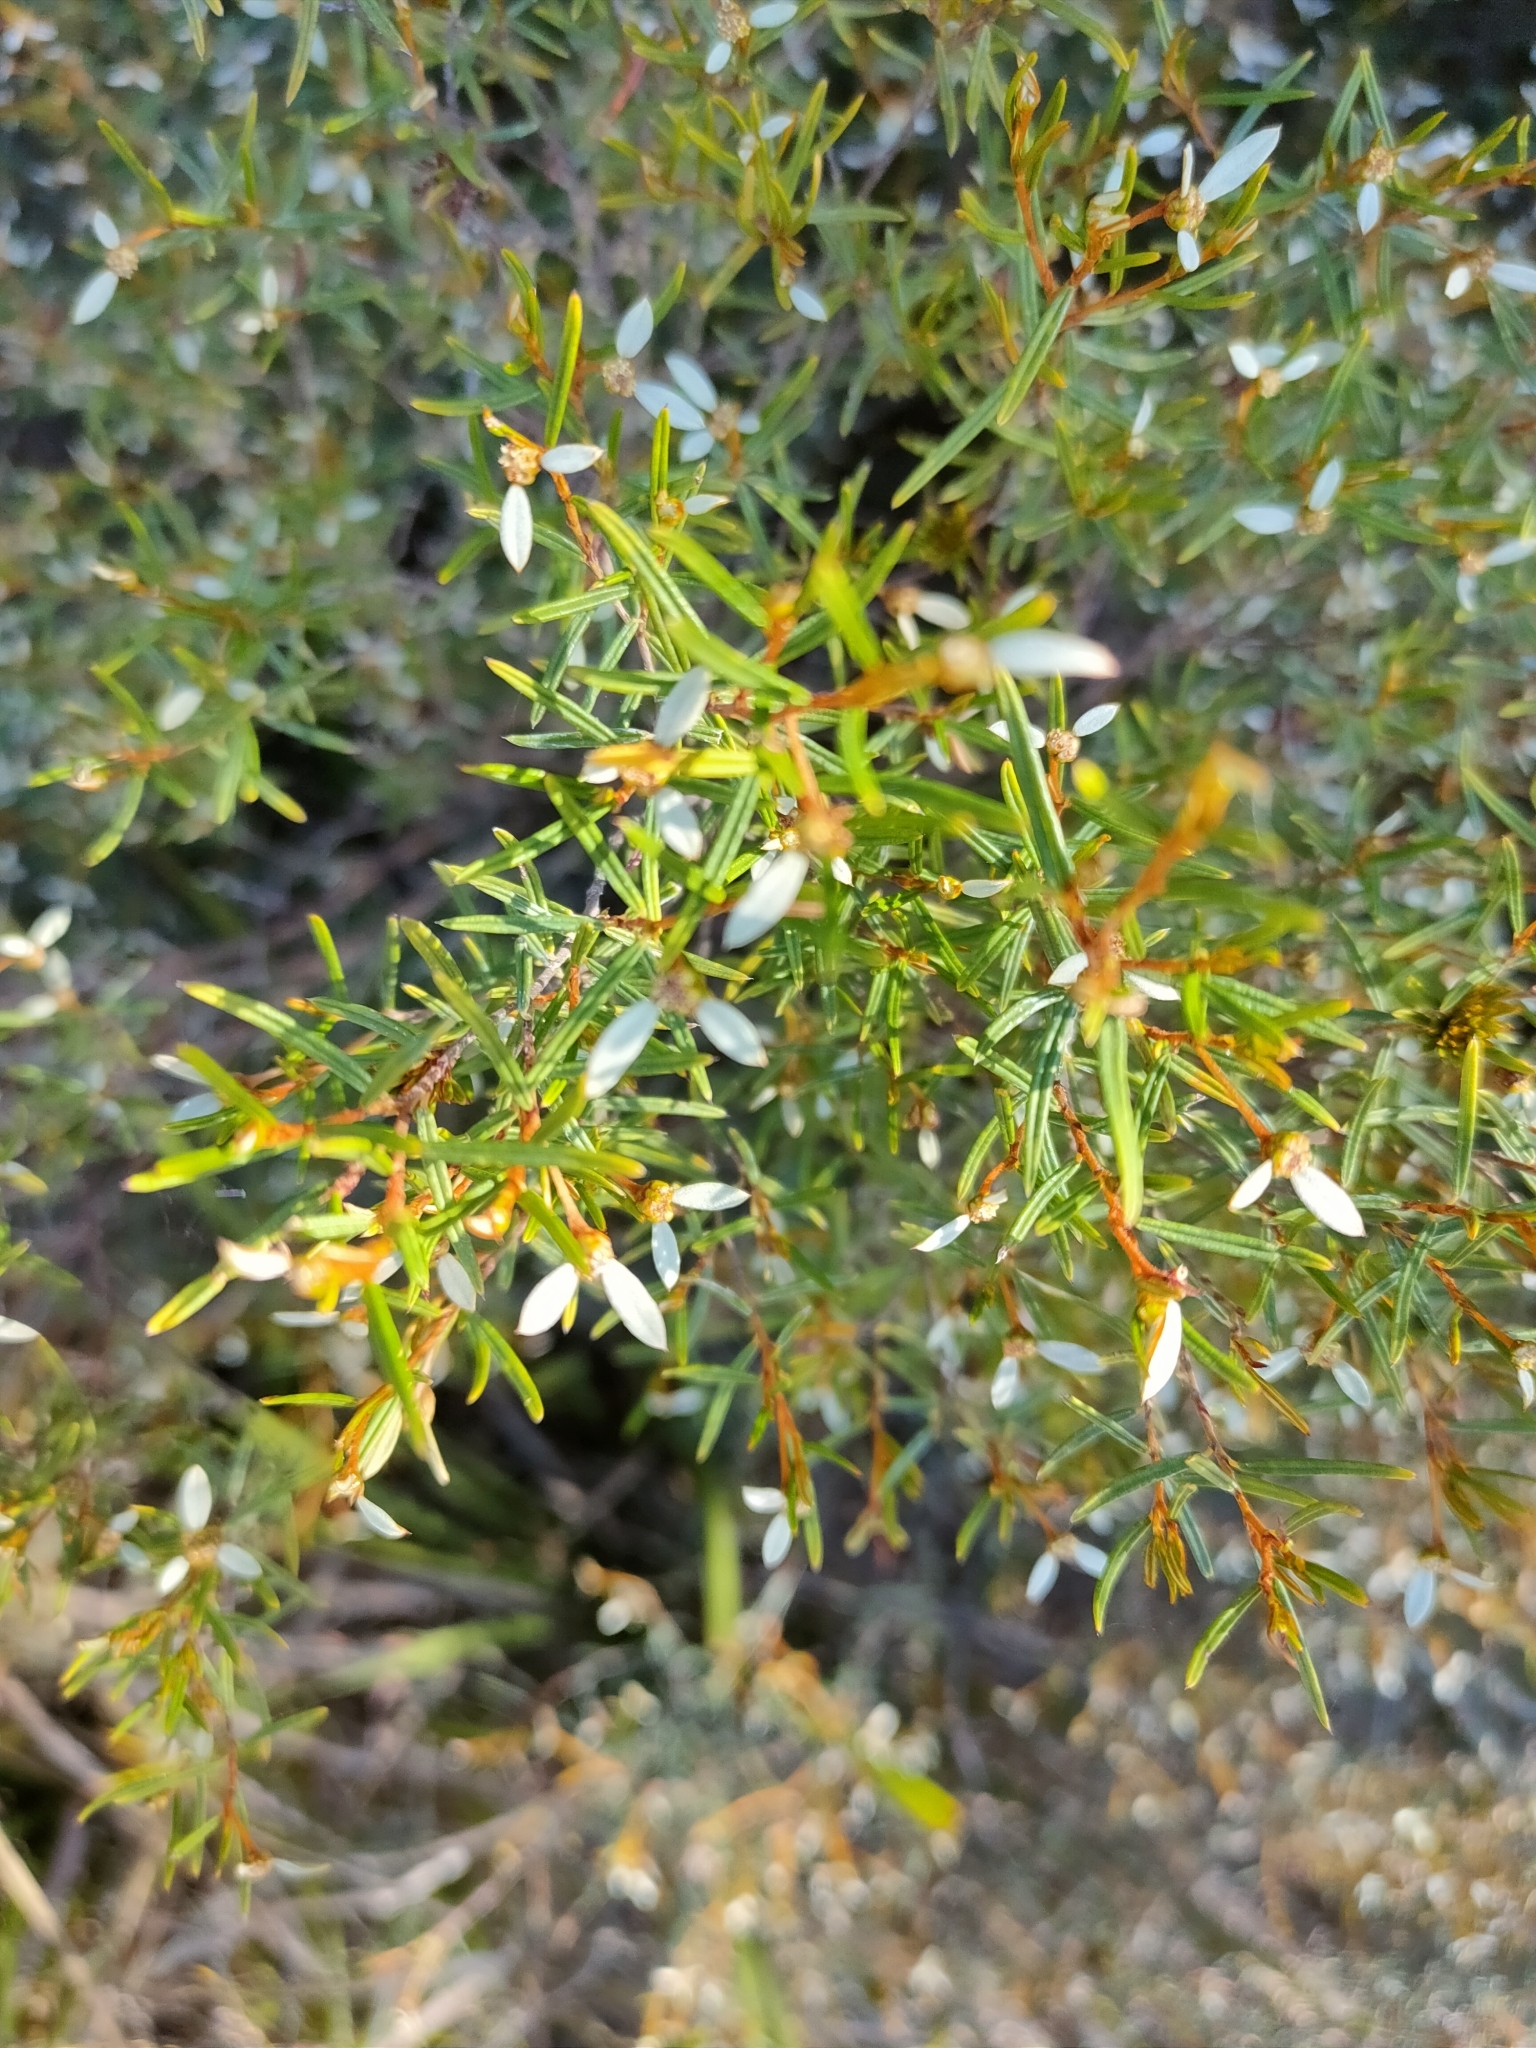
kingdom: Plantae
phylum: Tracheophyta
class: Magnoliopsida
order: Rosales
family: Rhamnaceae
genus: Spyridium
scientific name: Spyridium vexilliferum
